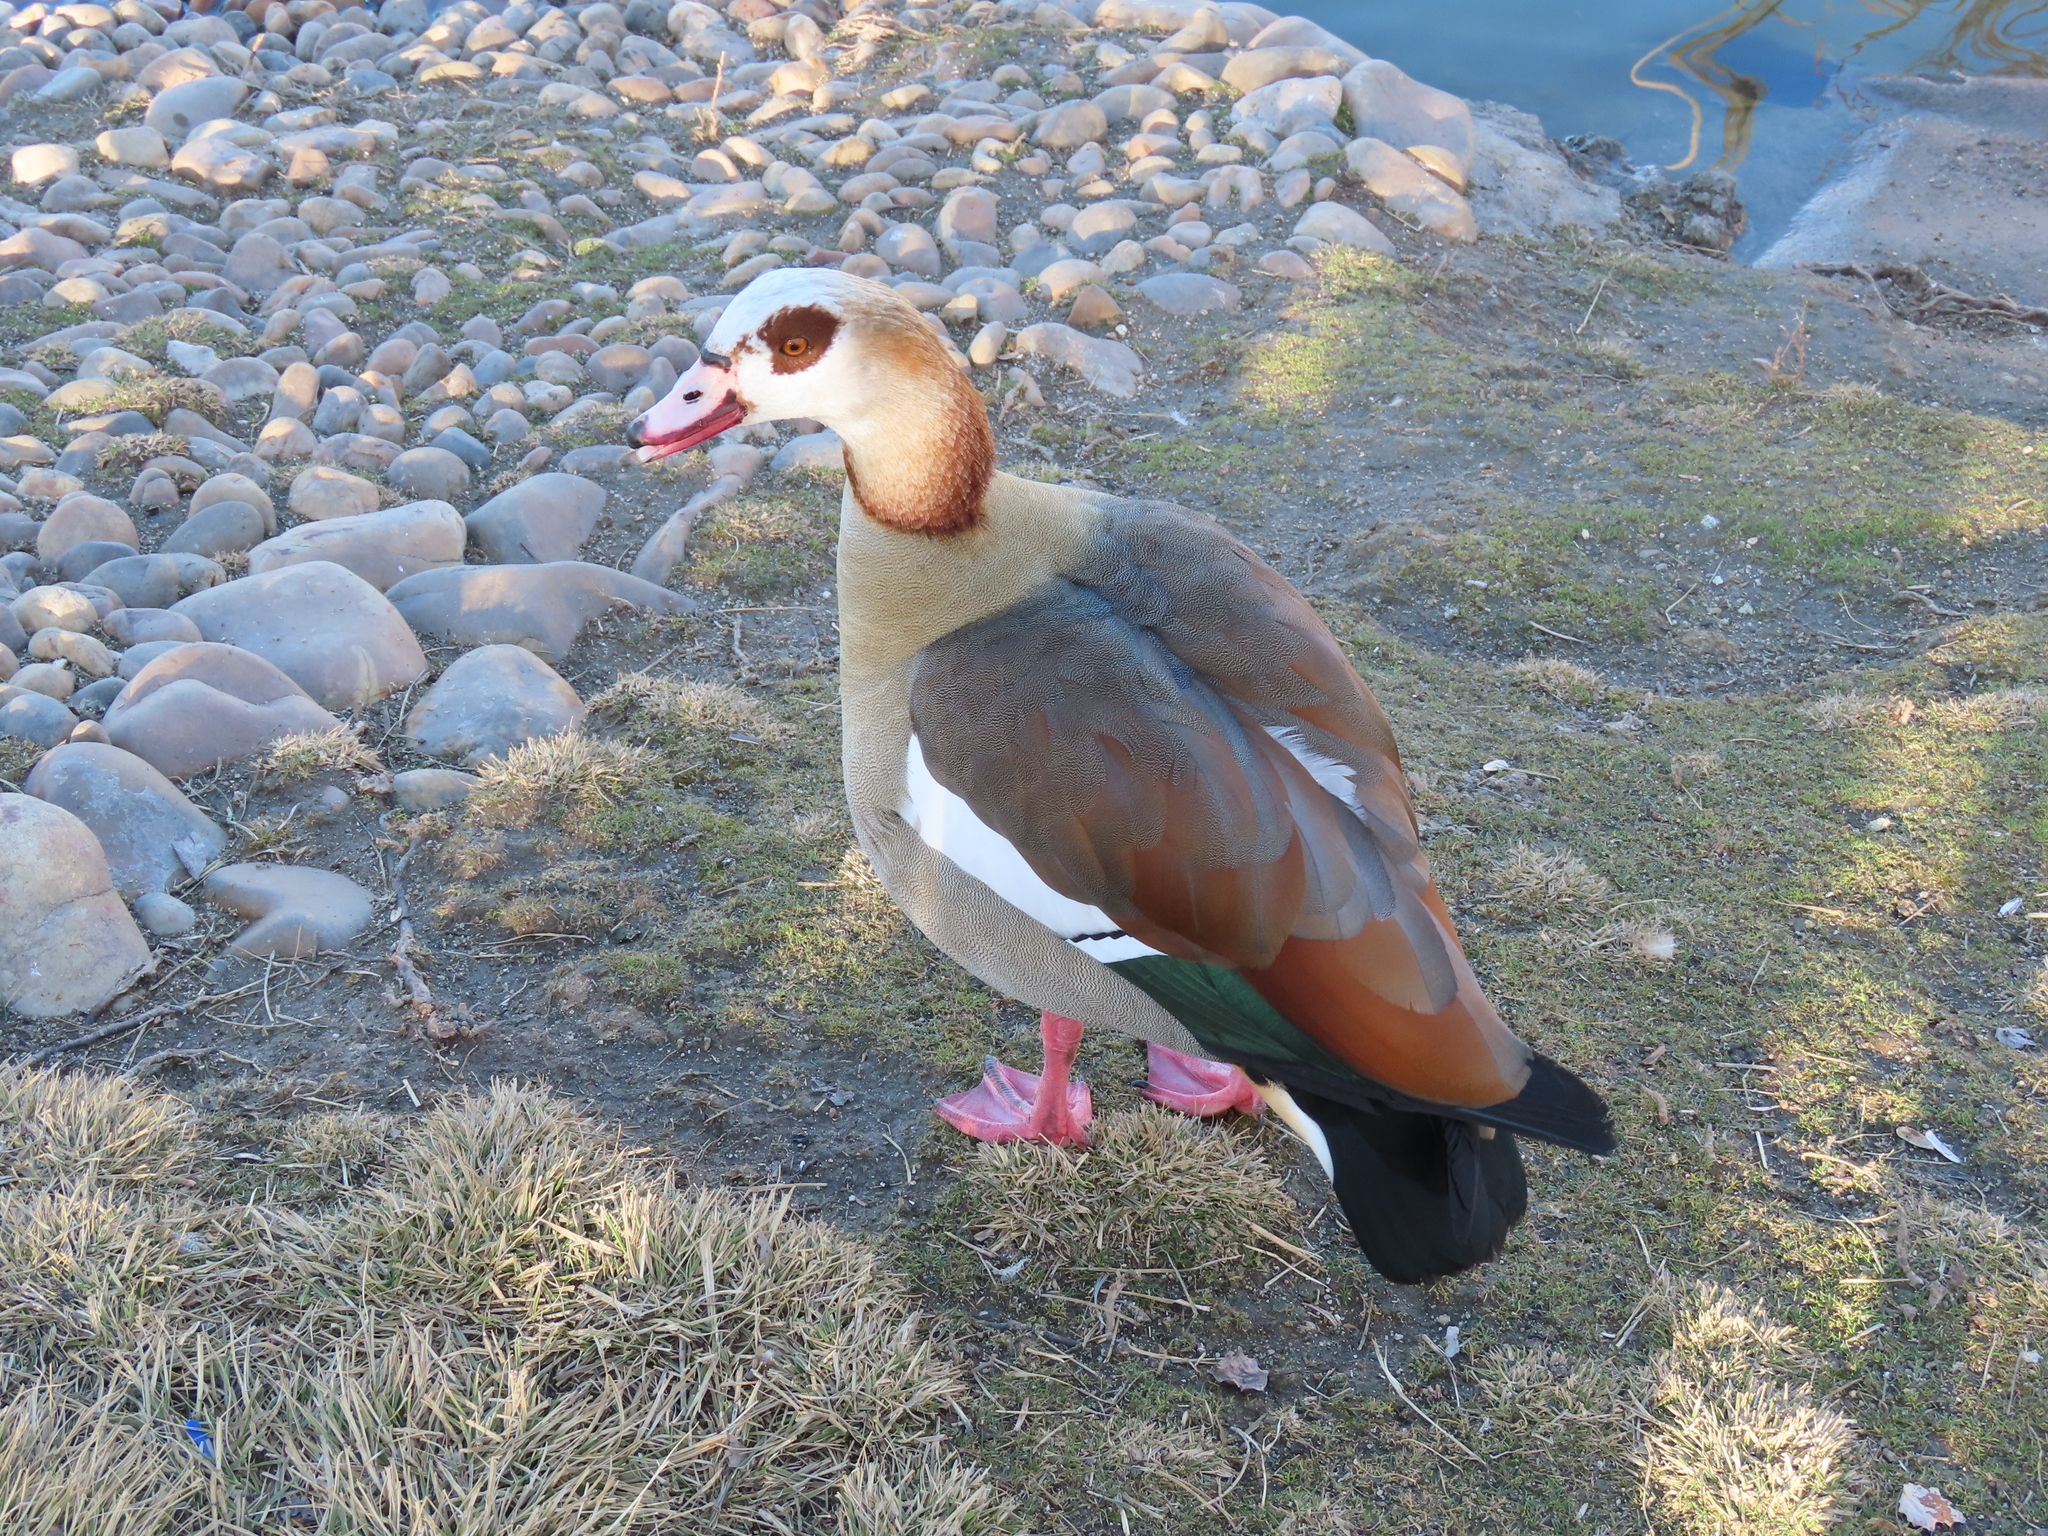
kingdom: Animalia
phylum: Chordata
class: Aves
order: Anseriformes
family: Anatidae
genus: Alopochen
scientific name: Alopochen aegyptiaca
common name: Egyptian goose
